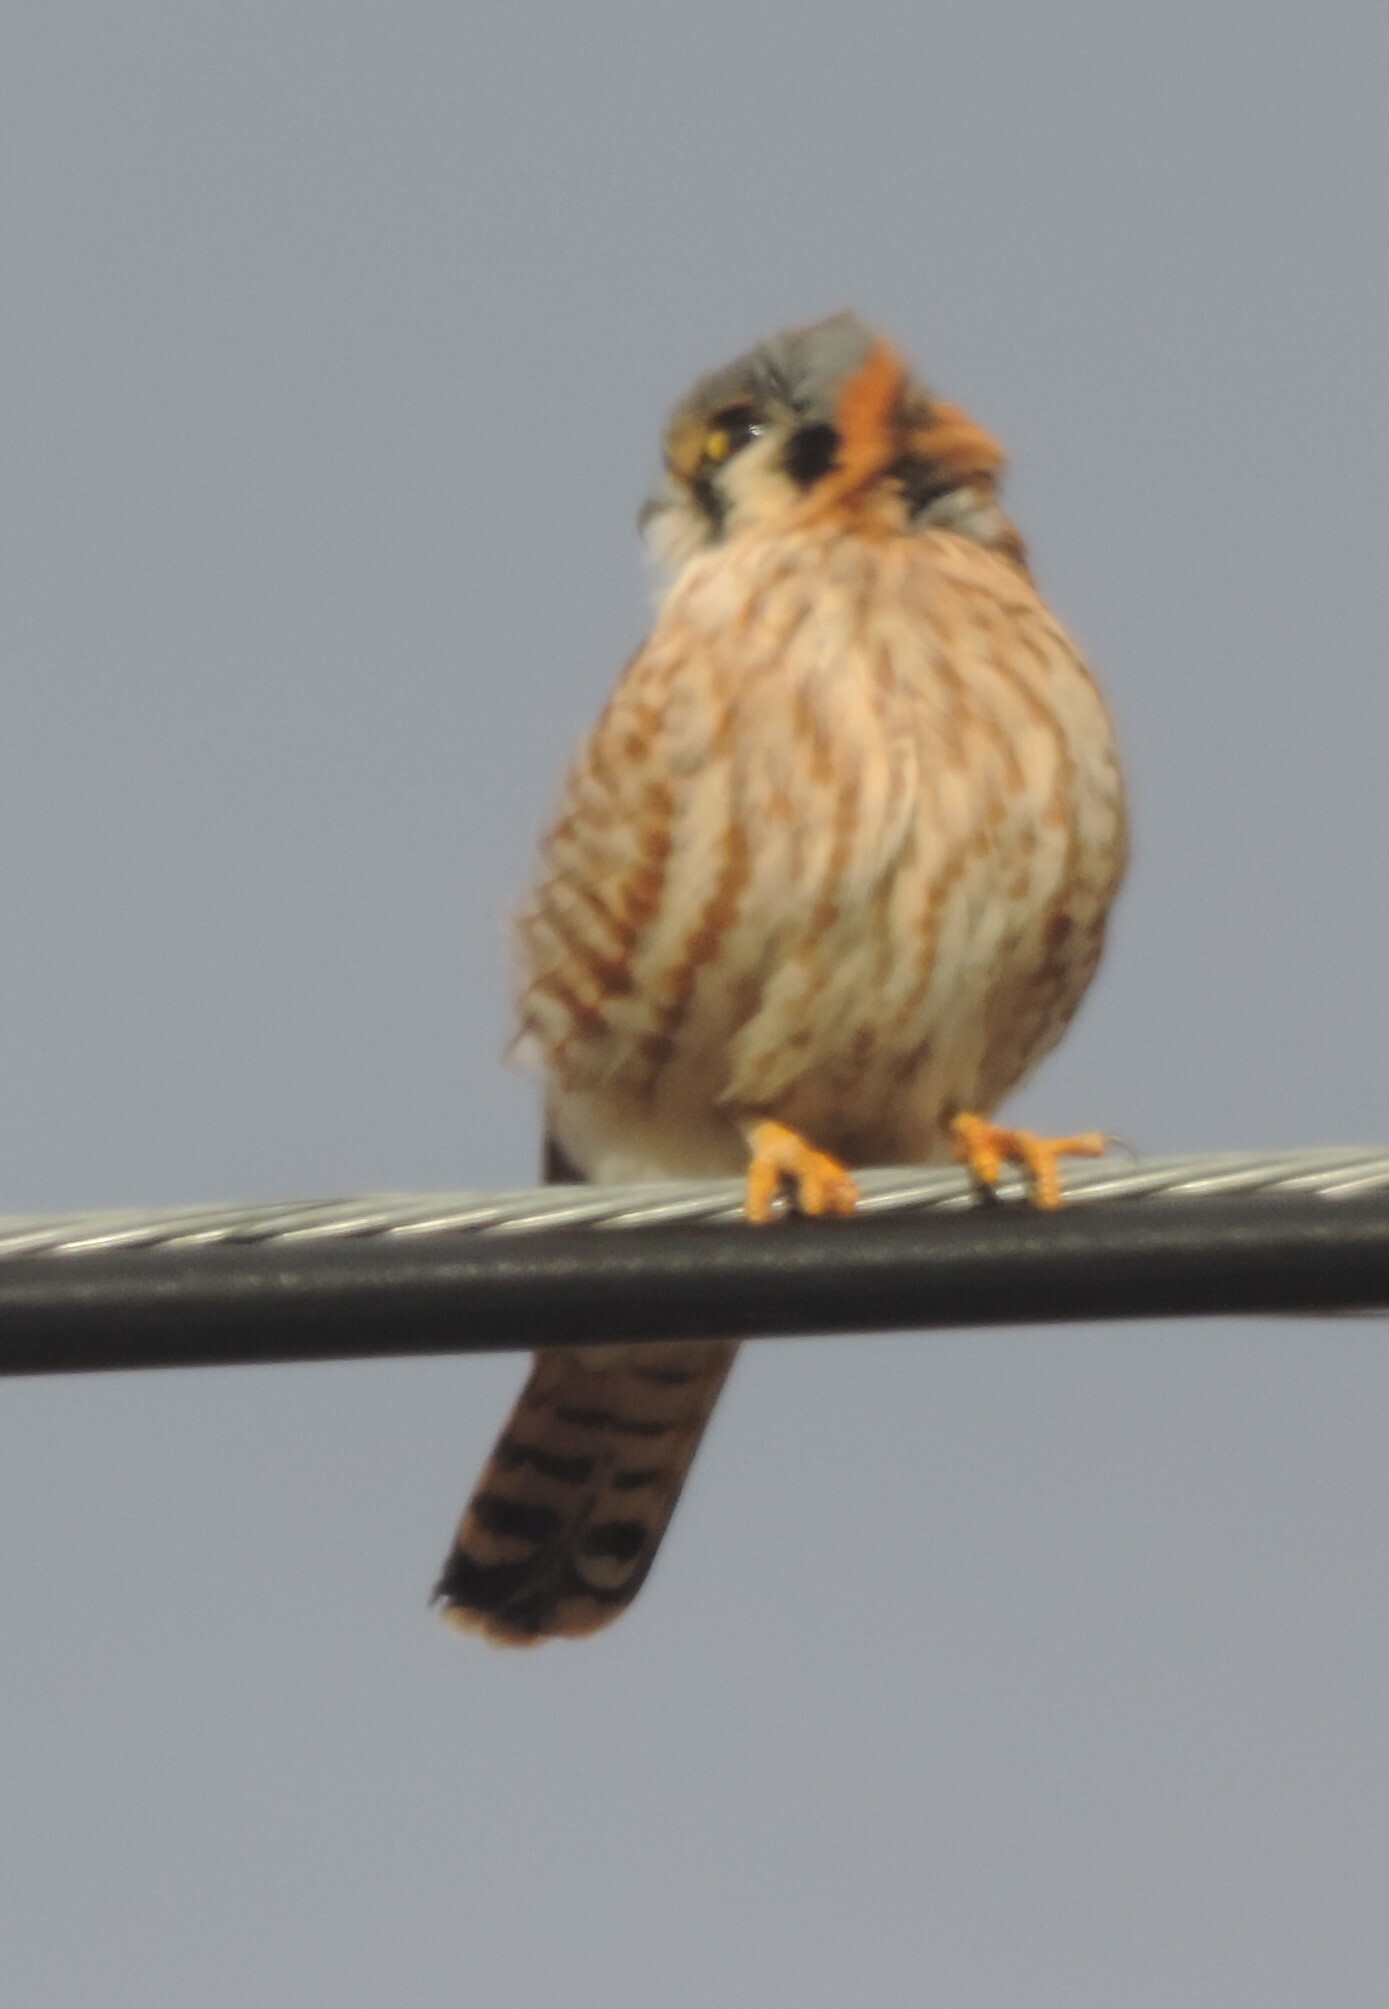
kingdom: Animalia
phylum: Chordata
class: Aves
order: Falconiformes
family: Falconidae
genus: Falco
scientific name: Falco sparverius
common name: American kestrel
